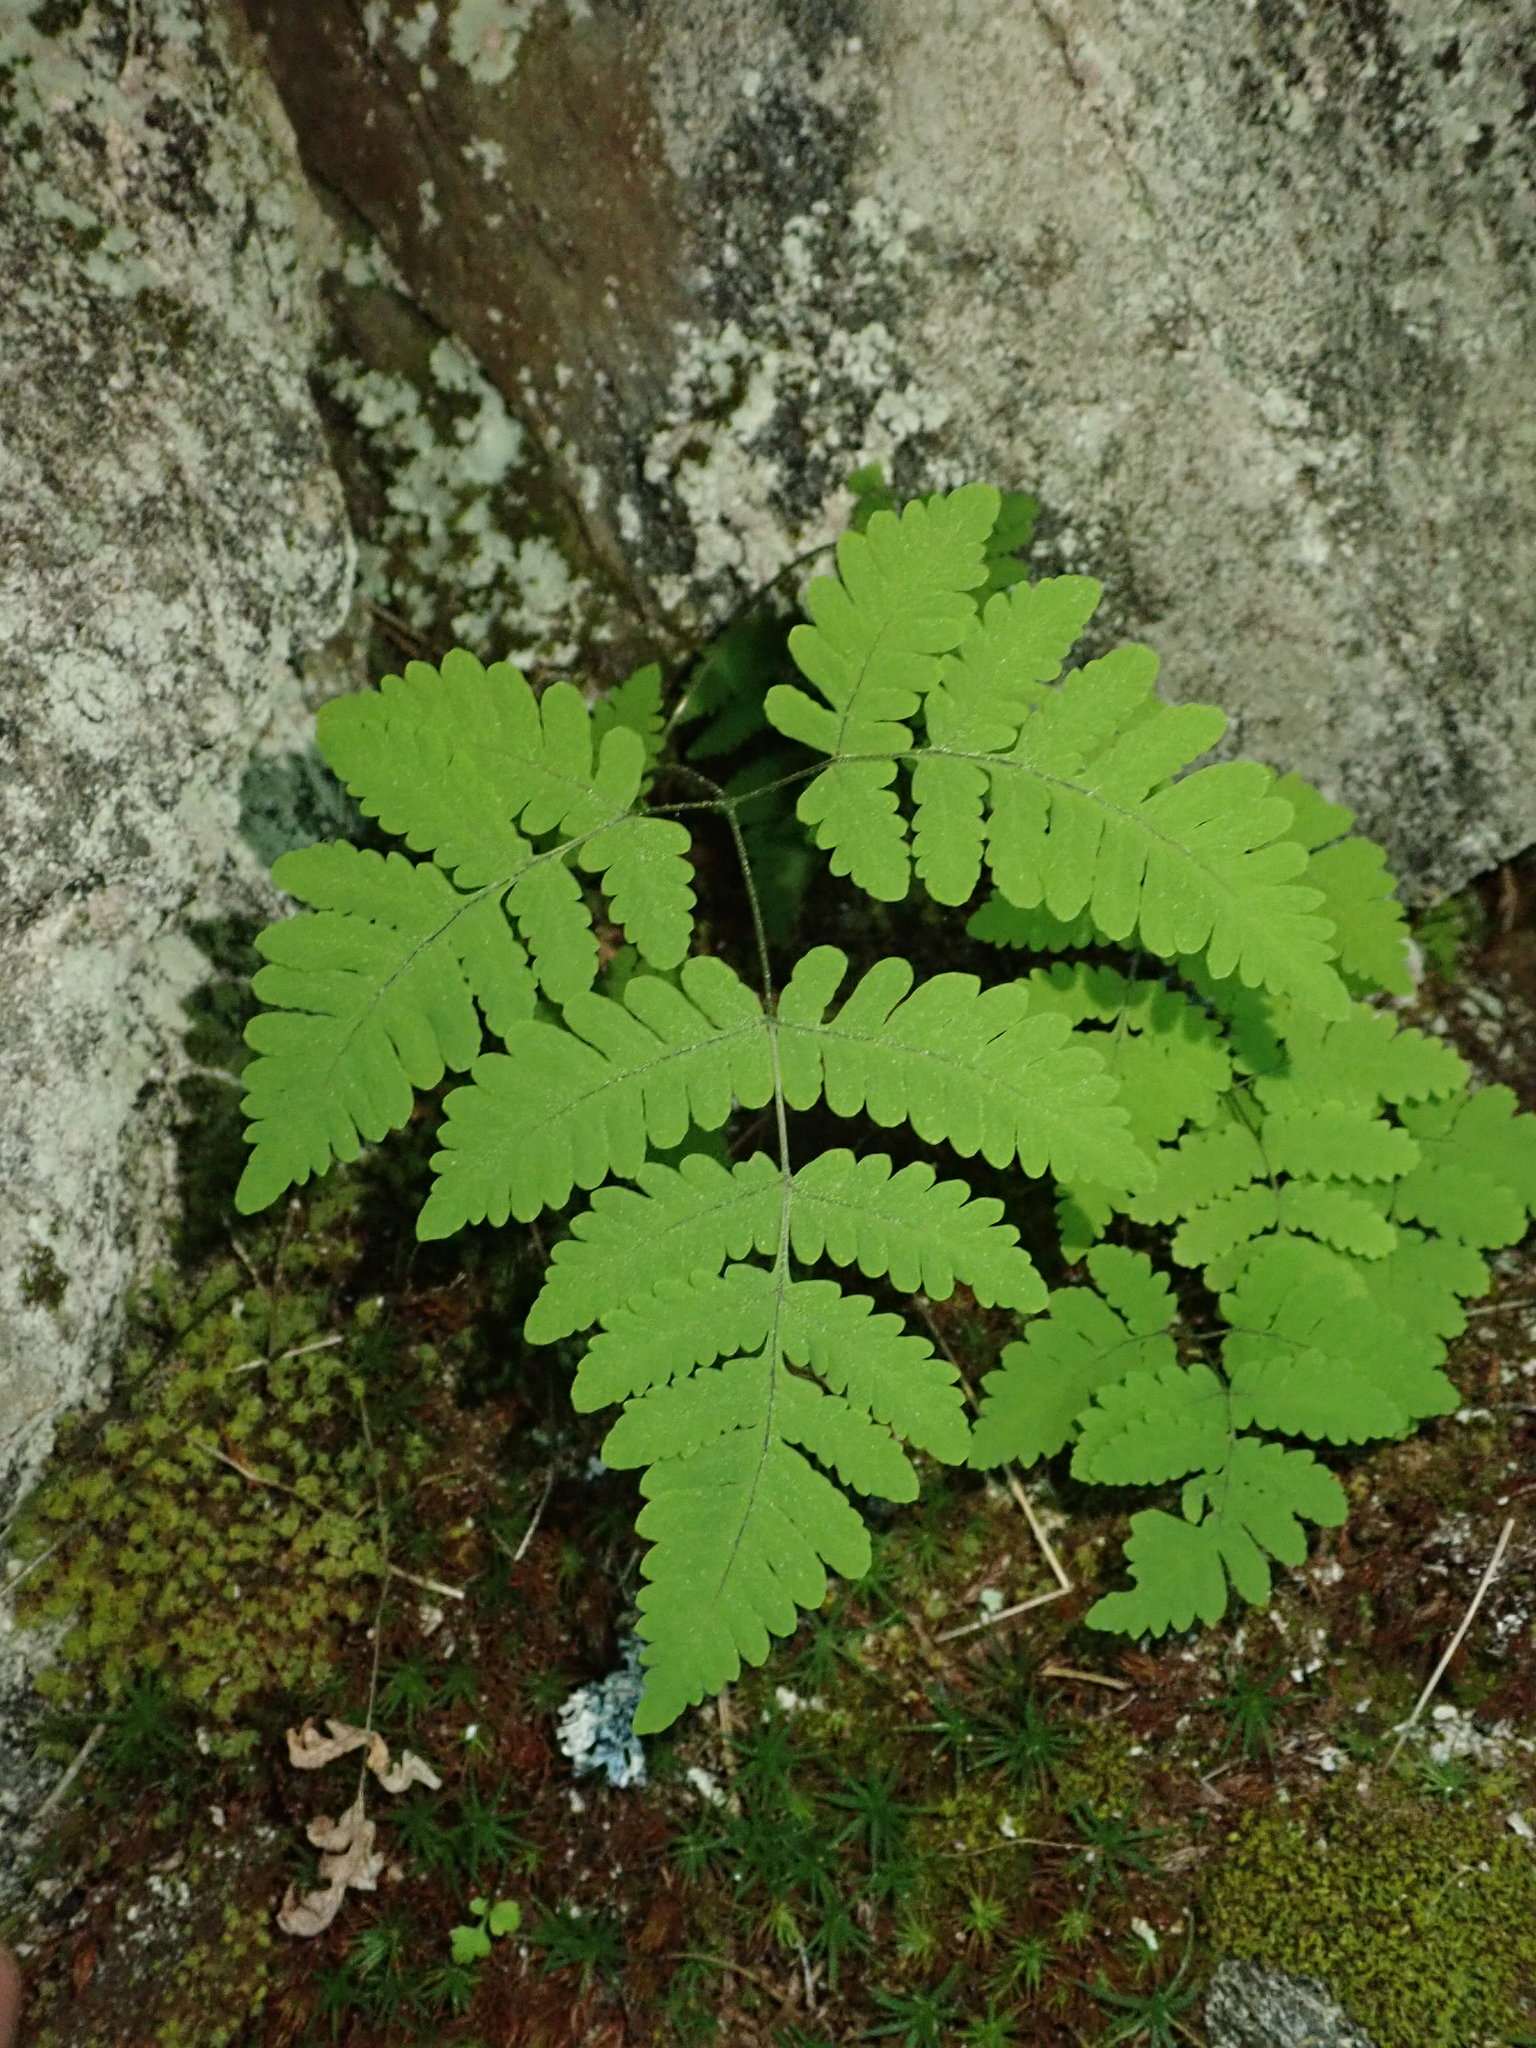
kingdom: Plantae
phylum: Tracheophyta
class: Polypodiopsida
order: Polypodiales
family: Cystopteridaceae
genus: Gymnocarpium
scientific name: Gymnocarpium dryopteris
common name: Oak fern
